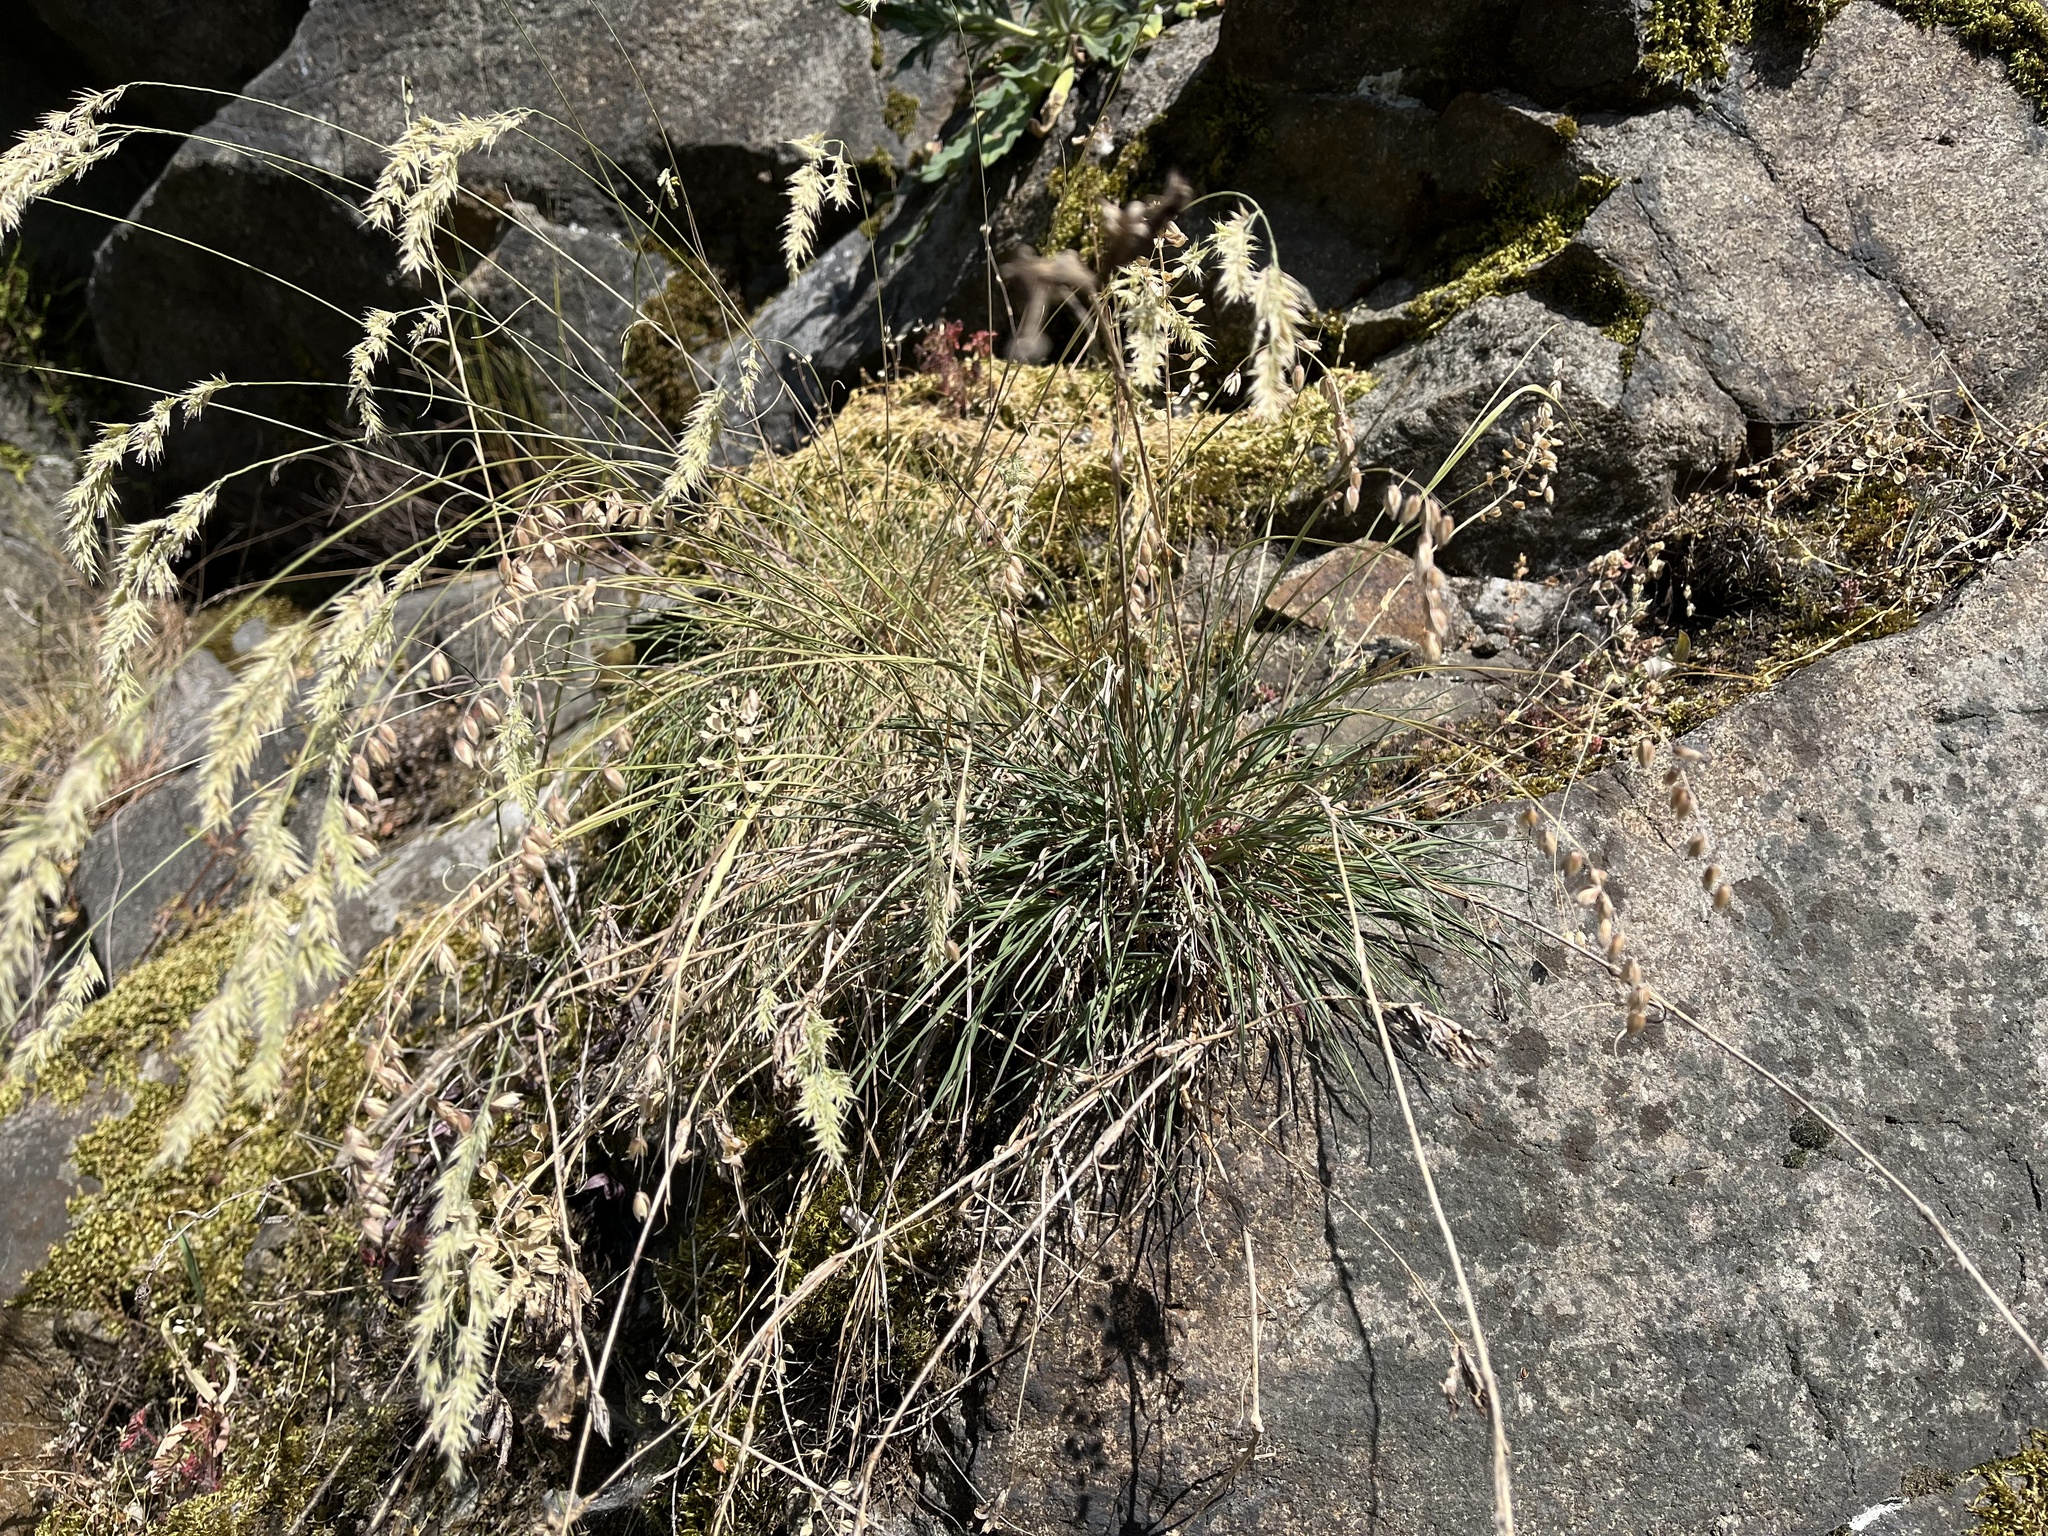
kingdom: Plantae
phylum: Tracheophyta
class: Liliopsida
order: Poales
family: Poaceae
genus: Melica
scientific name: Melica nutans
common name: Mountain melick
